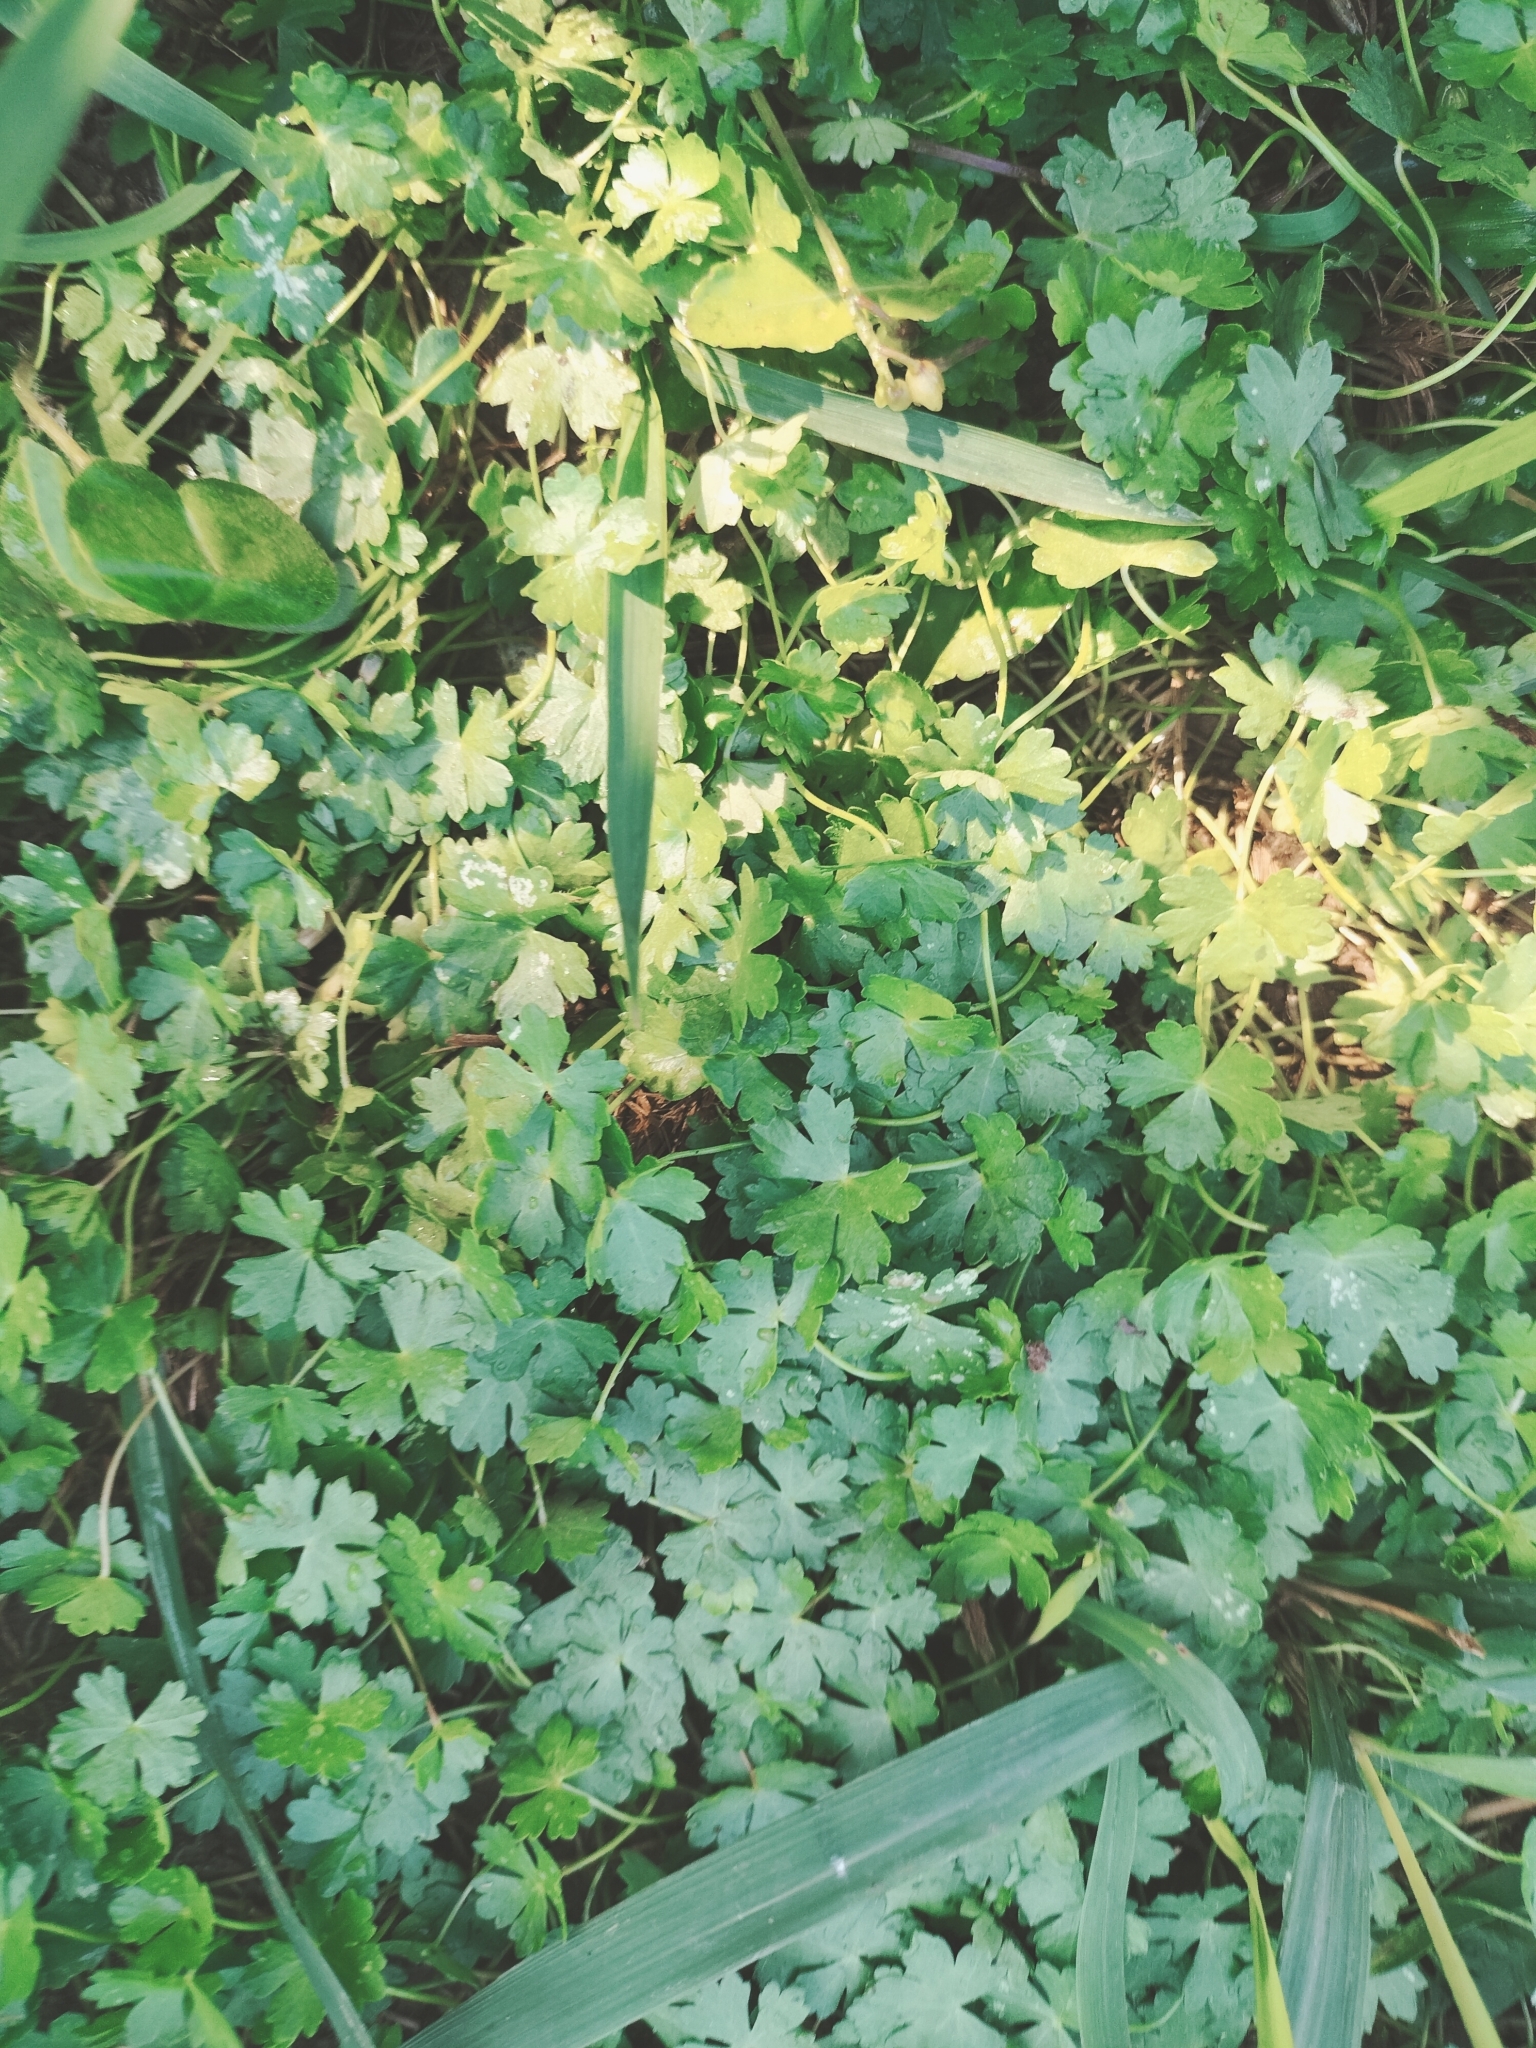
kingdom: Plantae
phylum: Tracheophyta
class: Magnoliopsida
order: Apiales
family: Araliaceae
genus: Hydrocotyle
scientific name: Hydrocotyle batrachium
